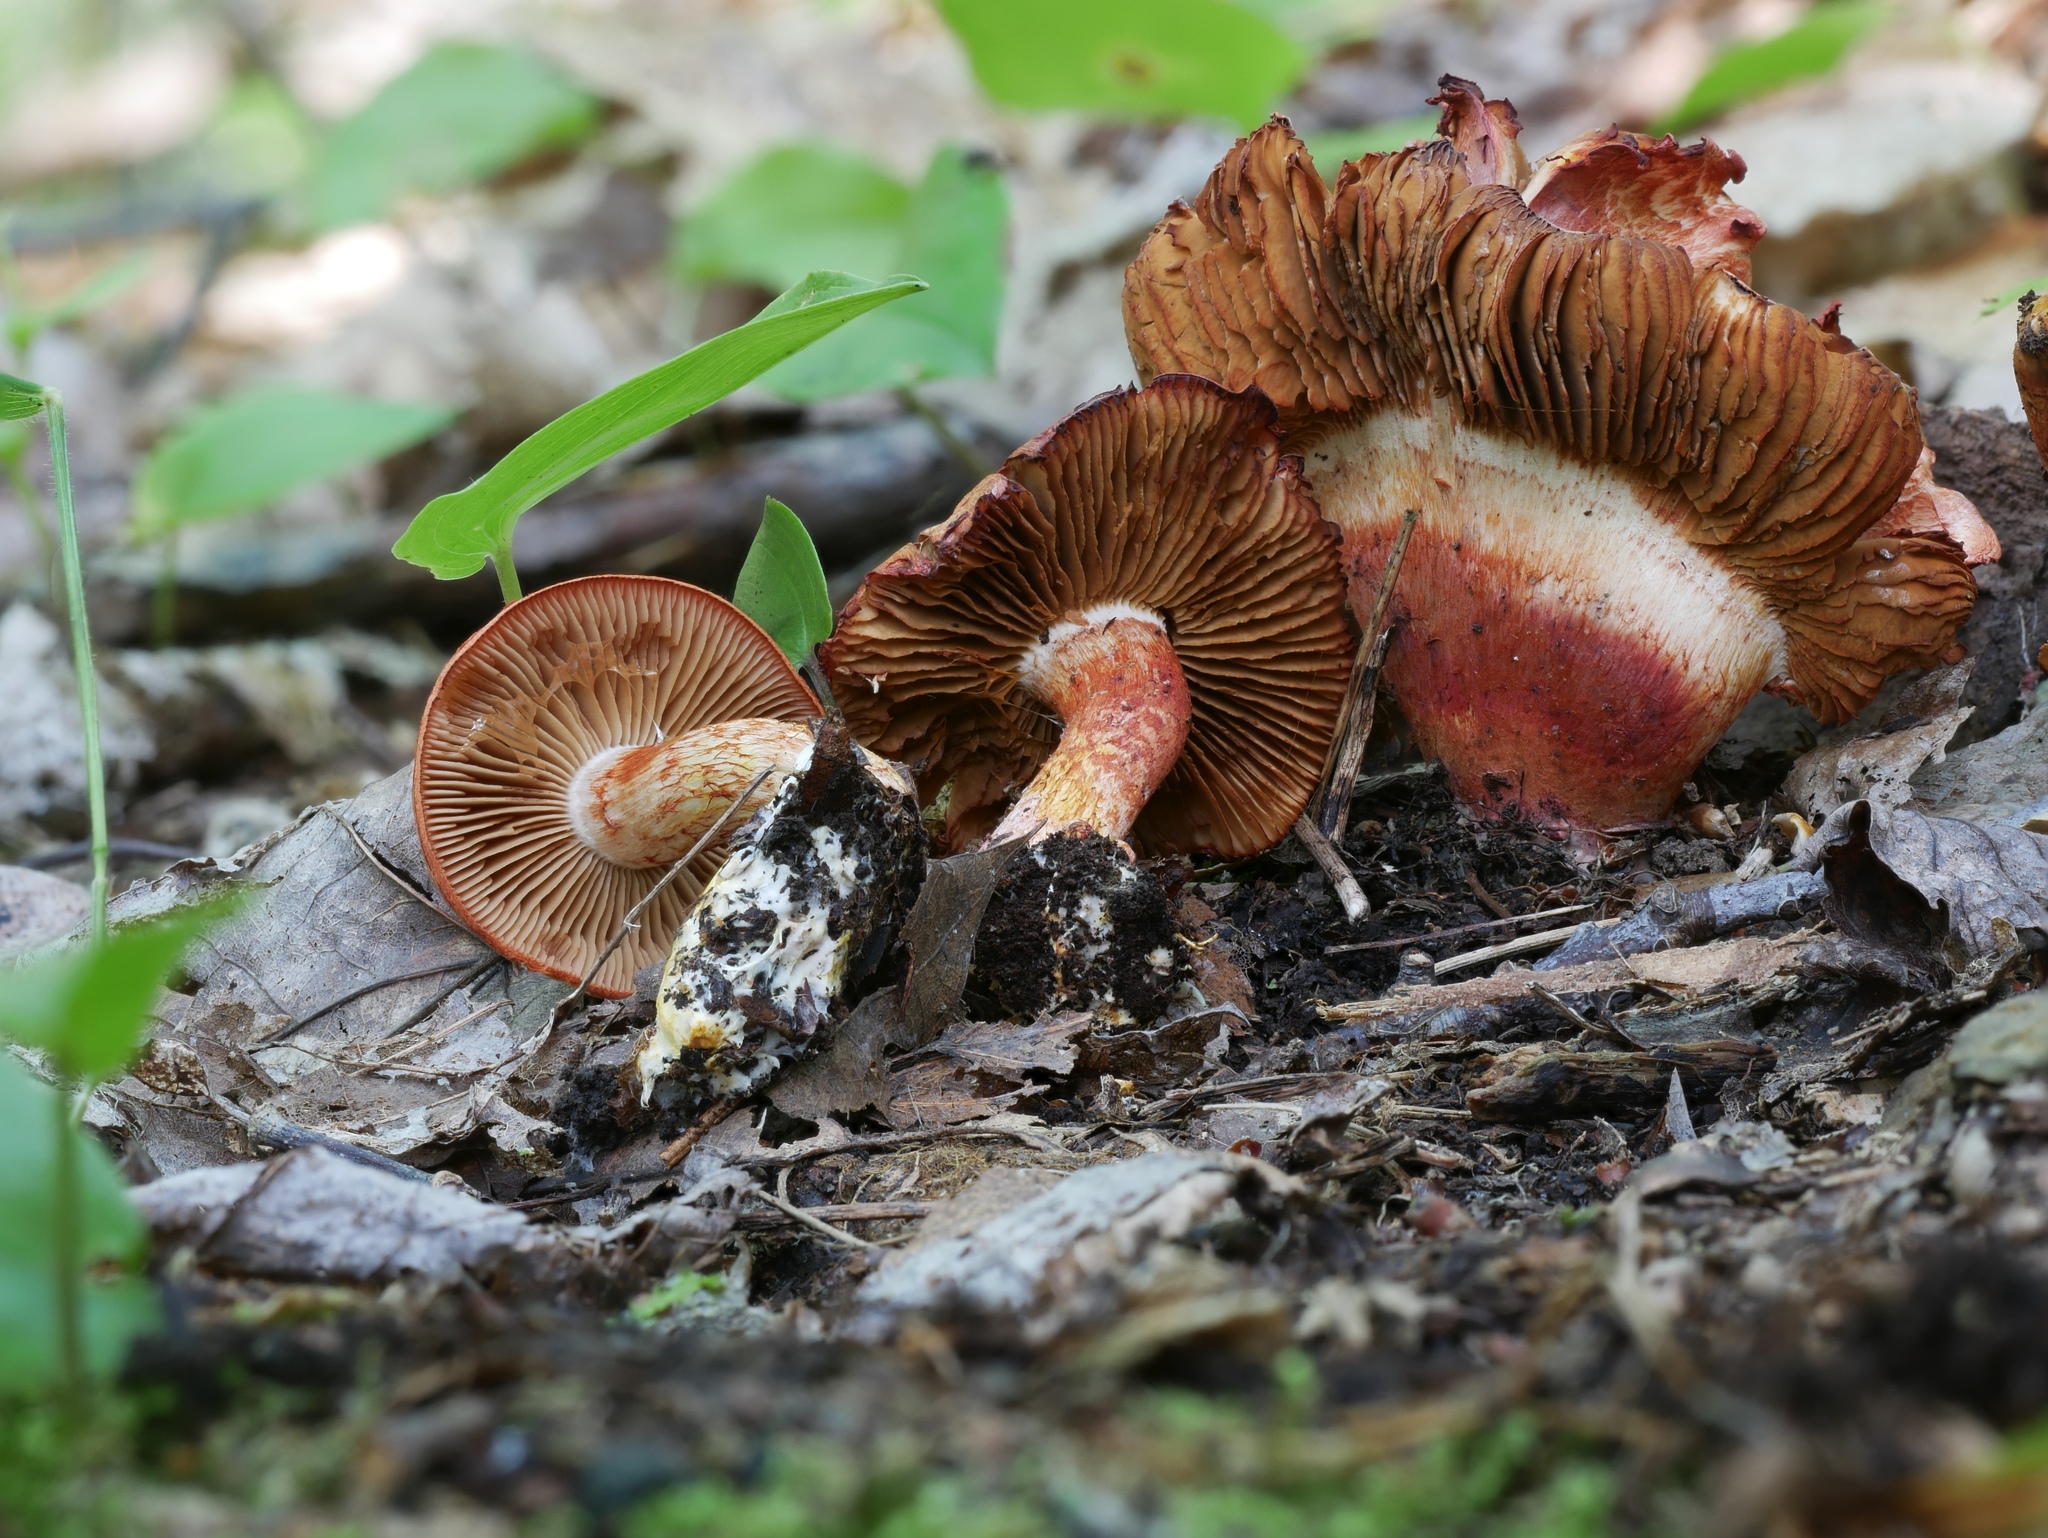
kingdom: Fungi
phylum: Basidiomycota
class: Agaricomycetes
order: Agaricales
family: Cortinariaceae
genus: Cortinarius
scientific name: Cortinarius bolaris
